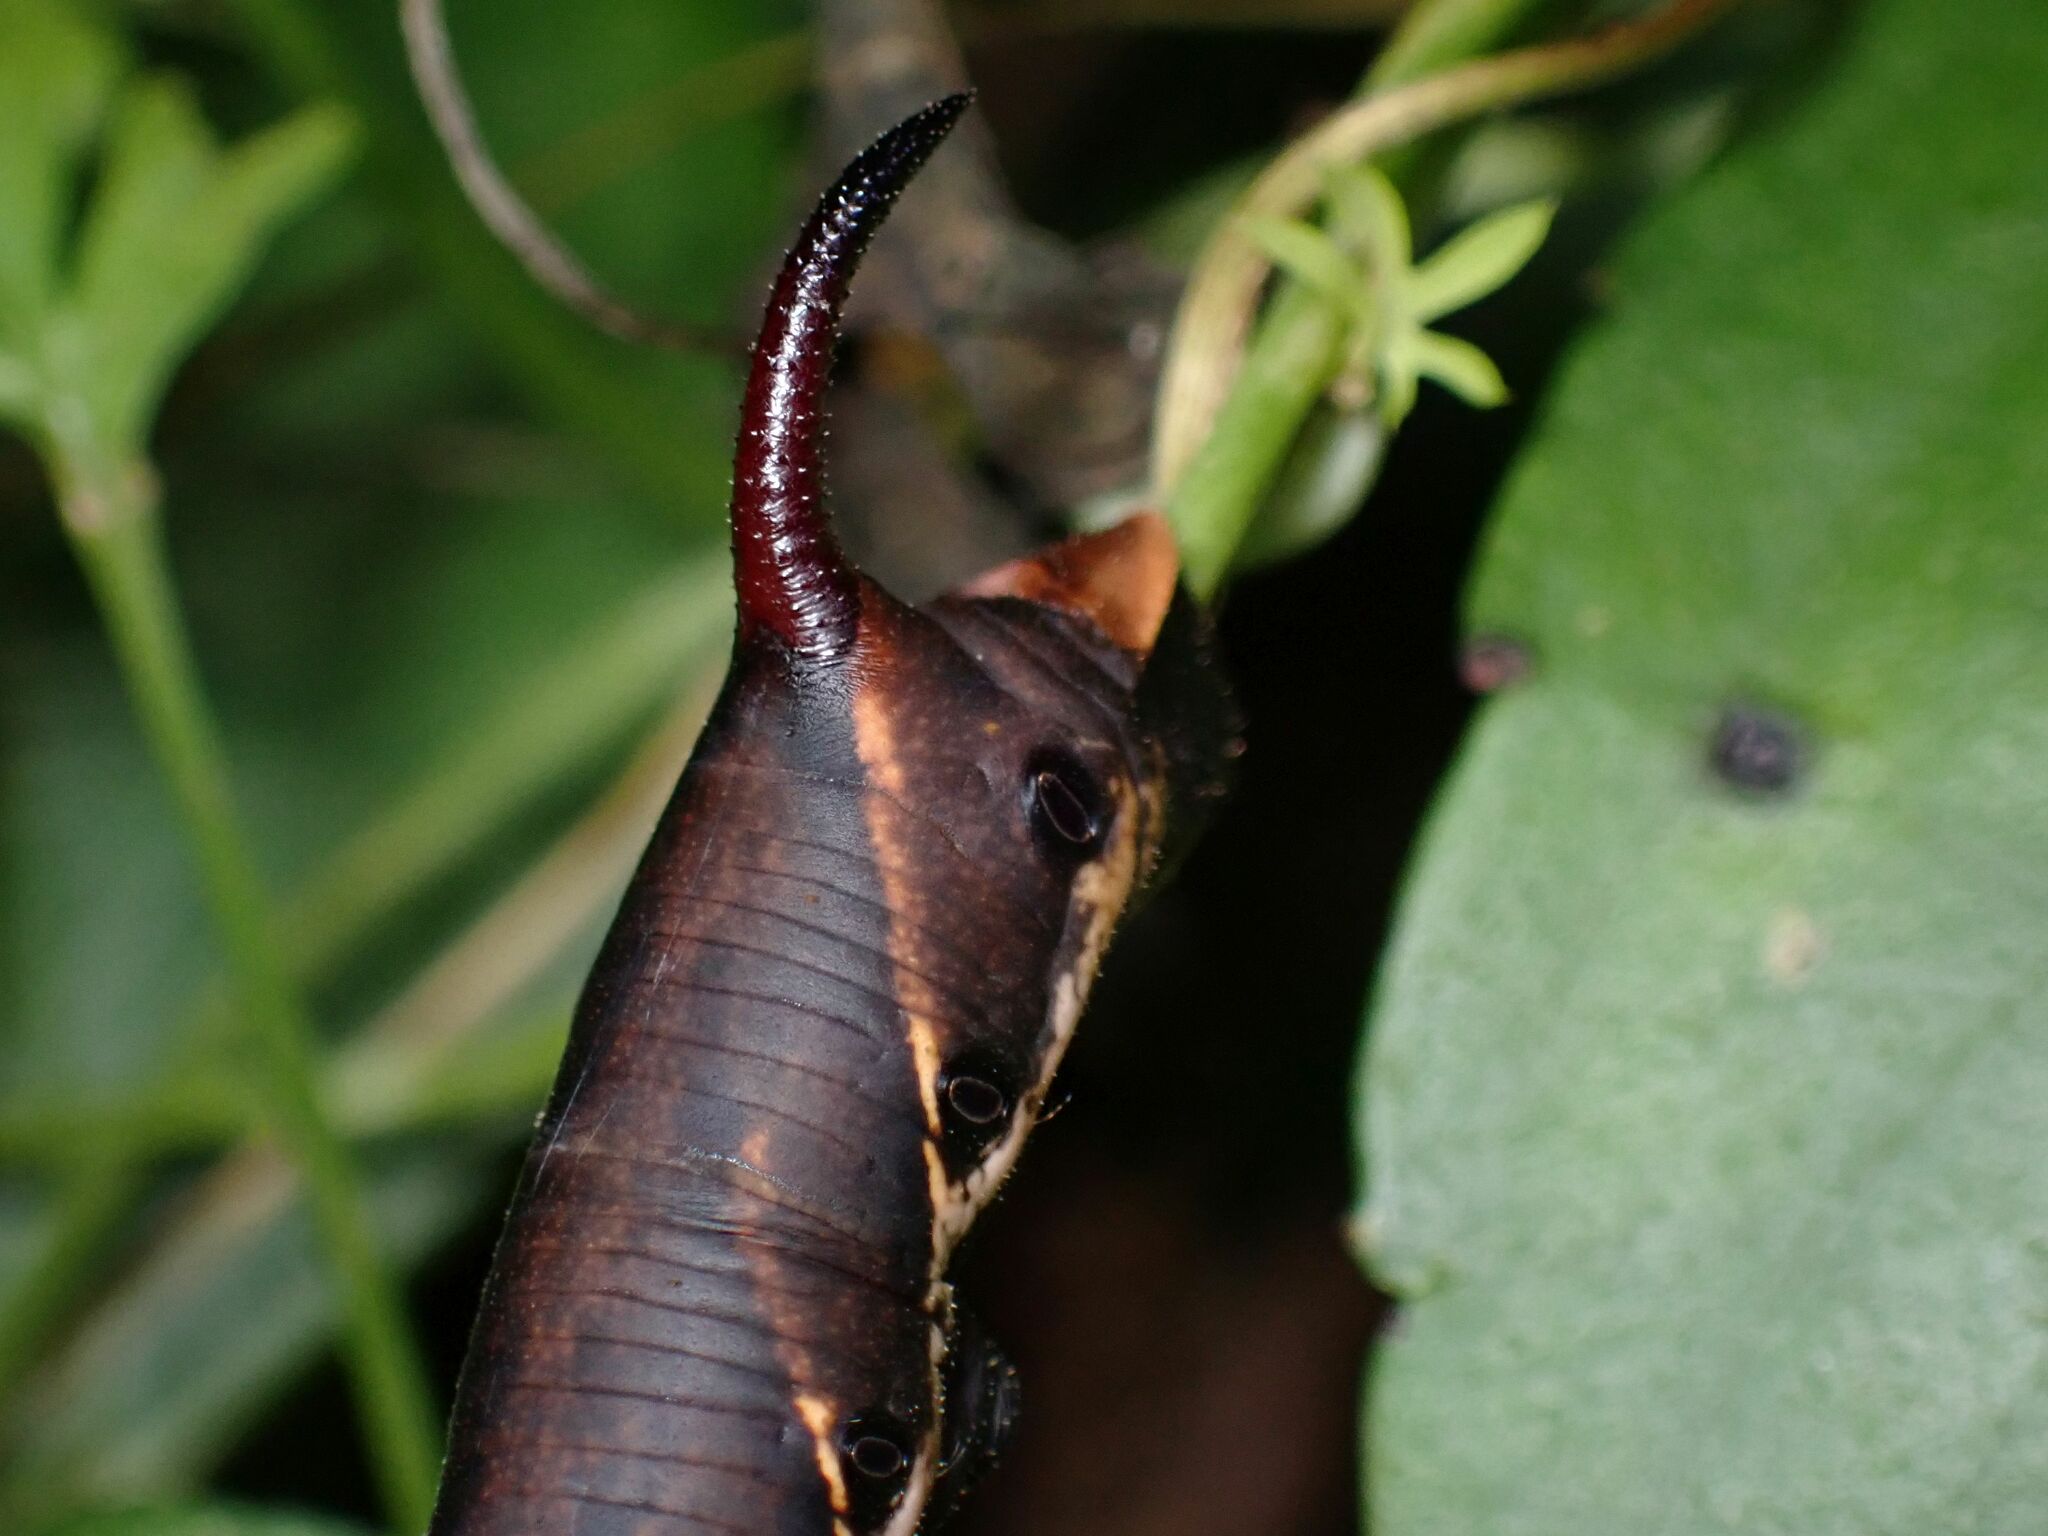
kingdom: Animalia
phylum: Arthropoda
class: Insecta
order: Lepidoptera
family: Sphingidae
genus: Agrius
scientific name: Agrius convolvuli
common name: Convolvulus hawkmoth
